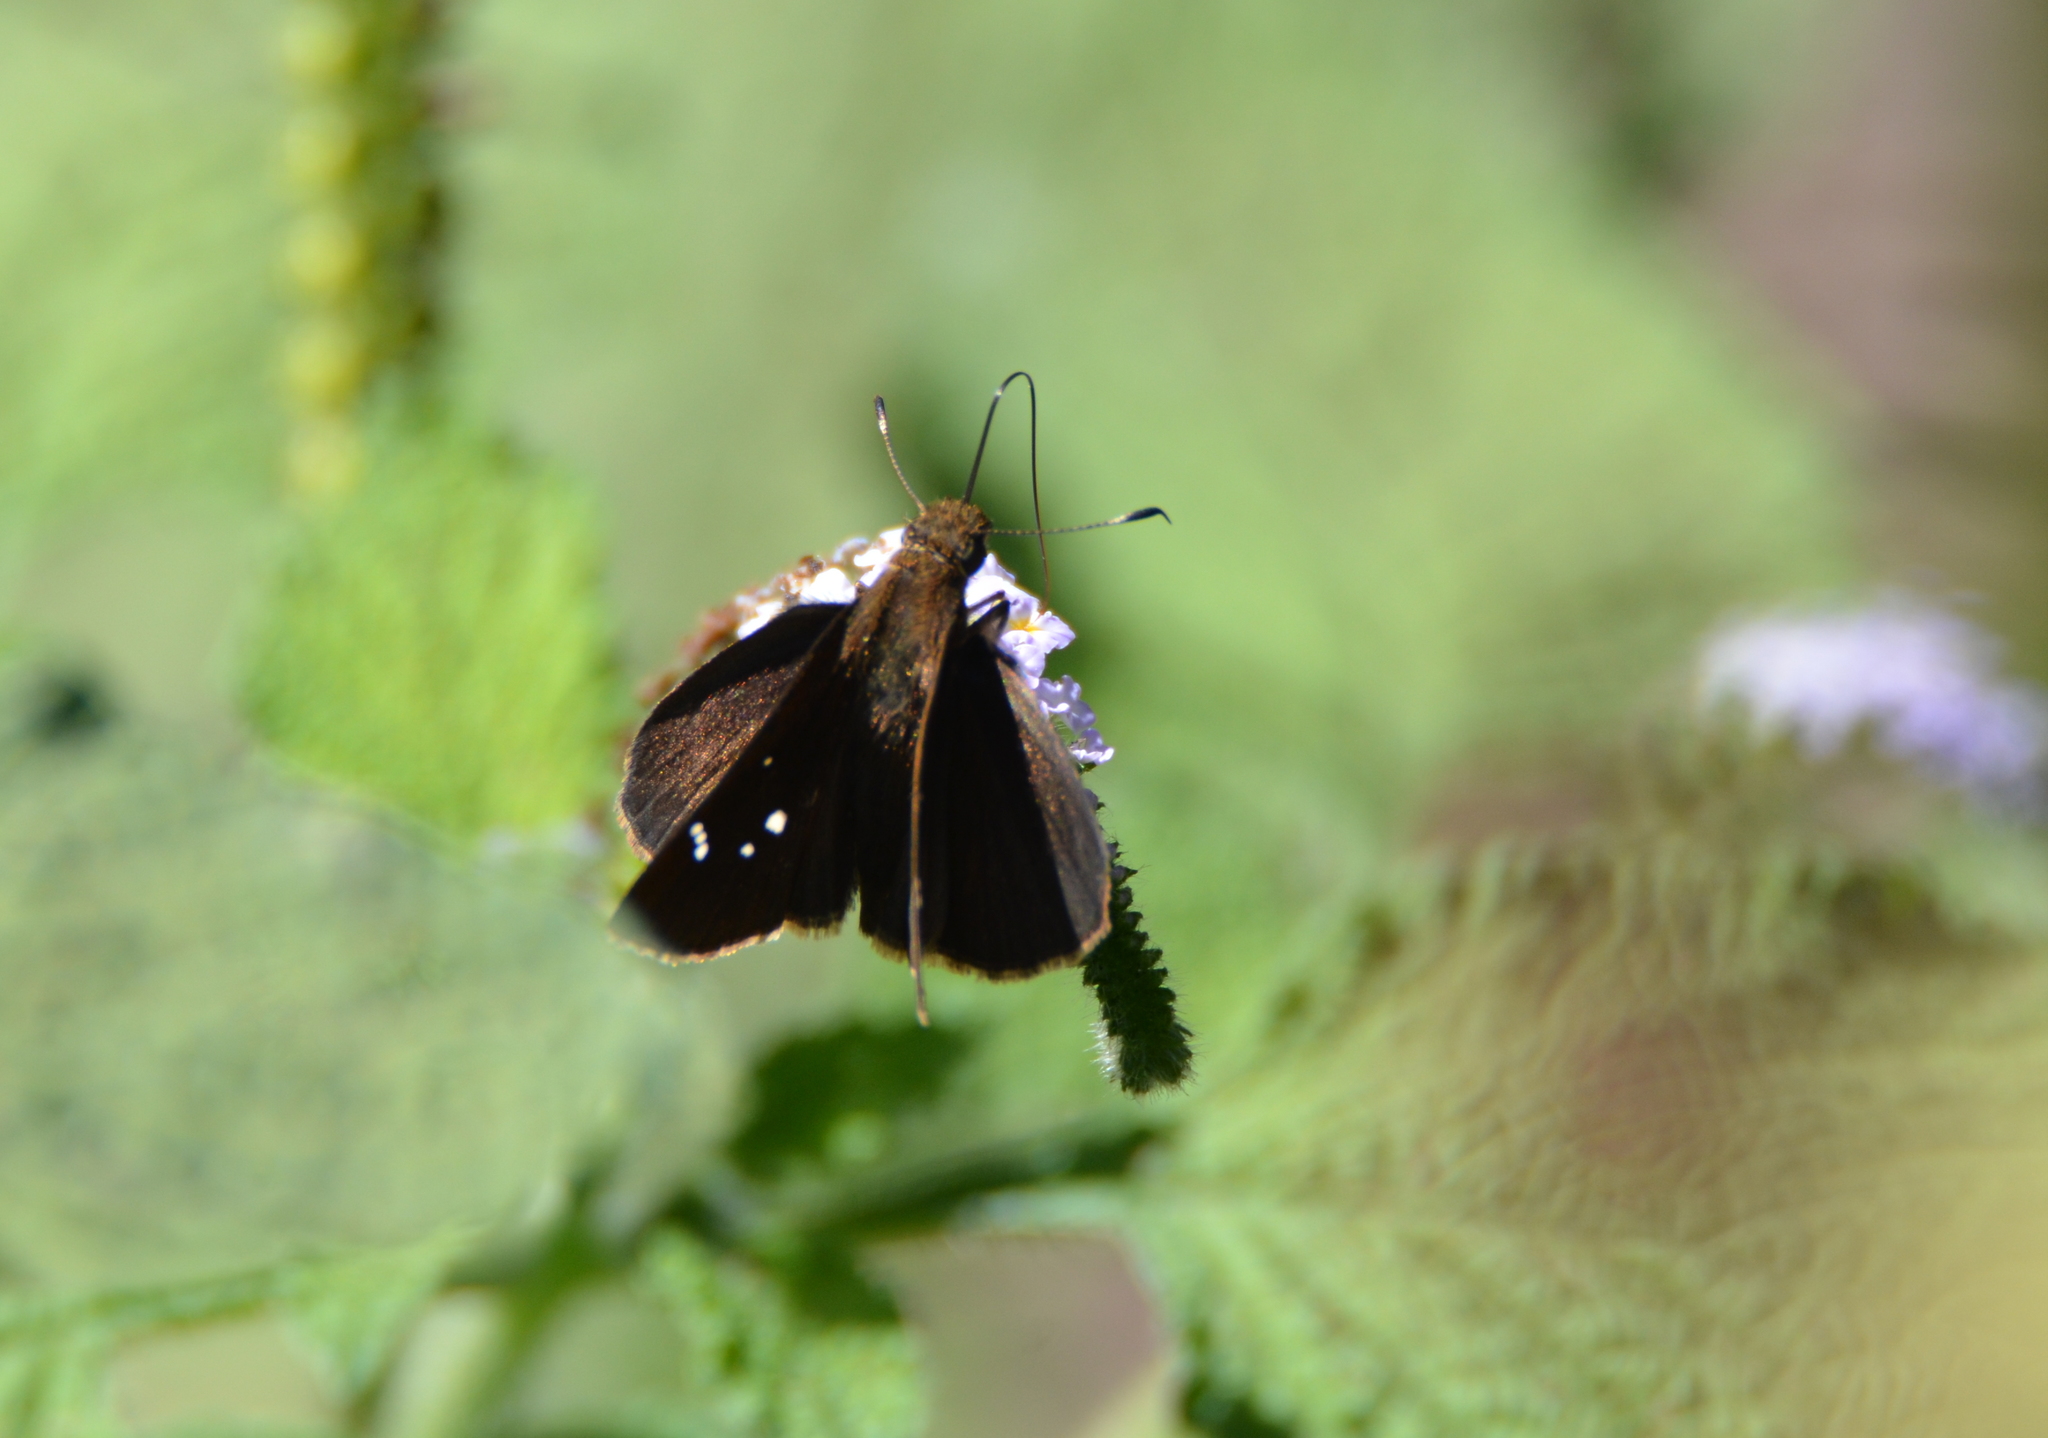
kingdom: Animalia
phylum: Arthropoda
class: Insecta
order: Lepidoptera
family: Hesperiidae
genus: Lerema
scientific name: Lerema accius
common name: Clouded skipper
